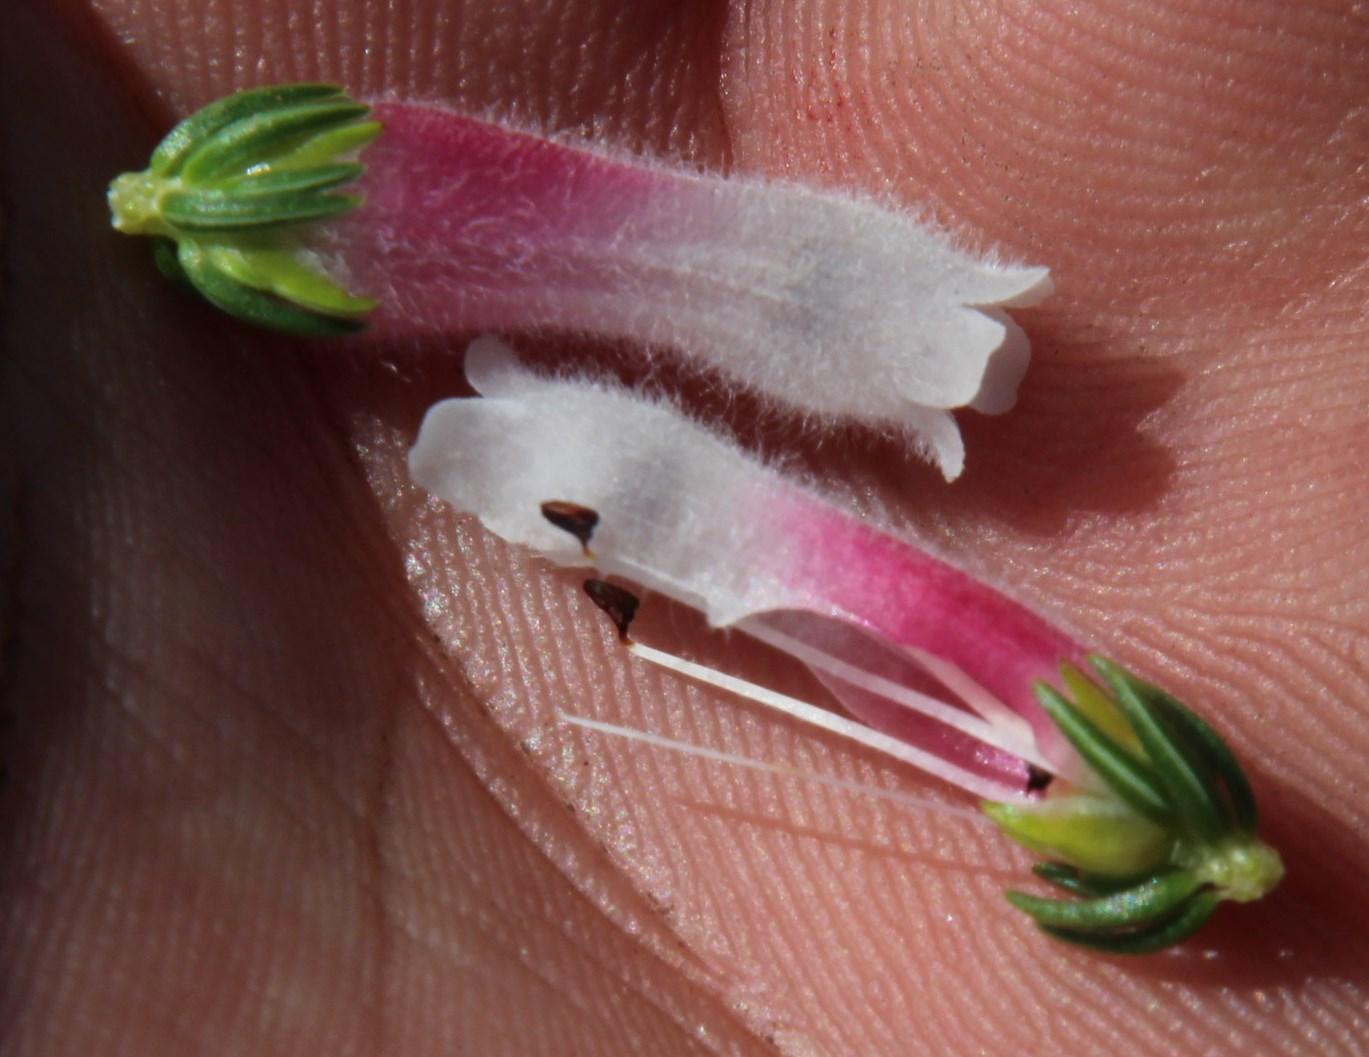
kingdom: Plantae
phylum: Tracheophyta
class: Magnoliopsida
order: Ericales
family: Ericaceae
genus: Erica
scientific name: Erica leucotrachela
